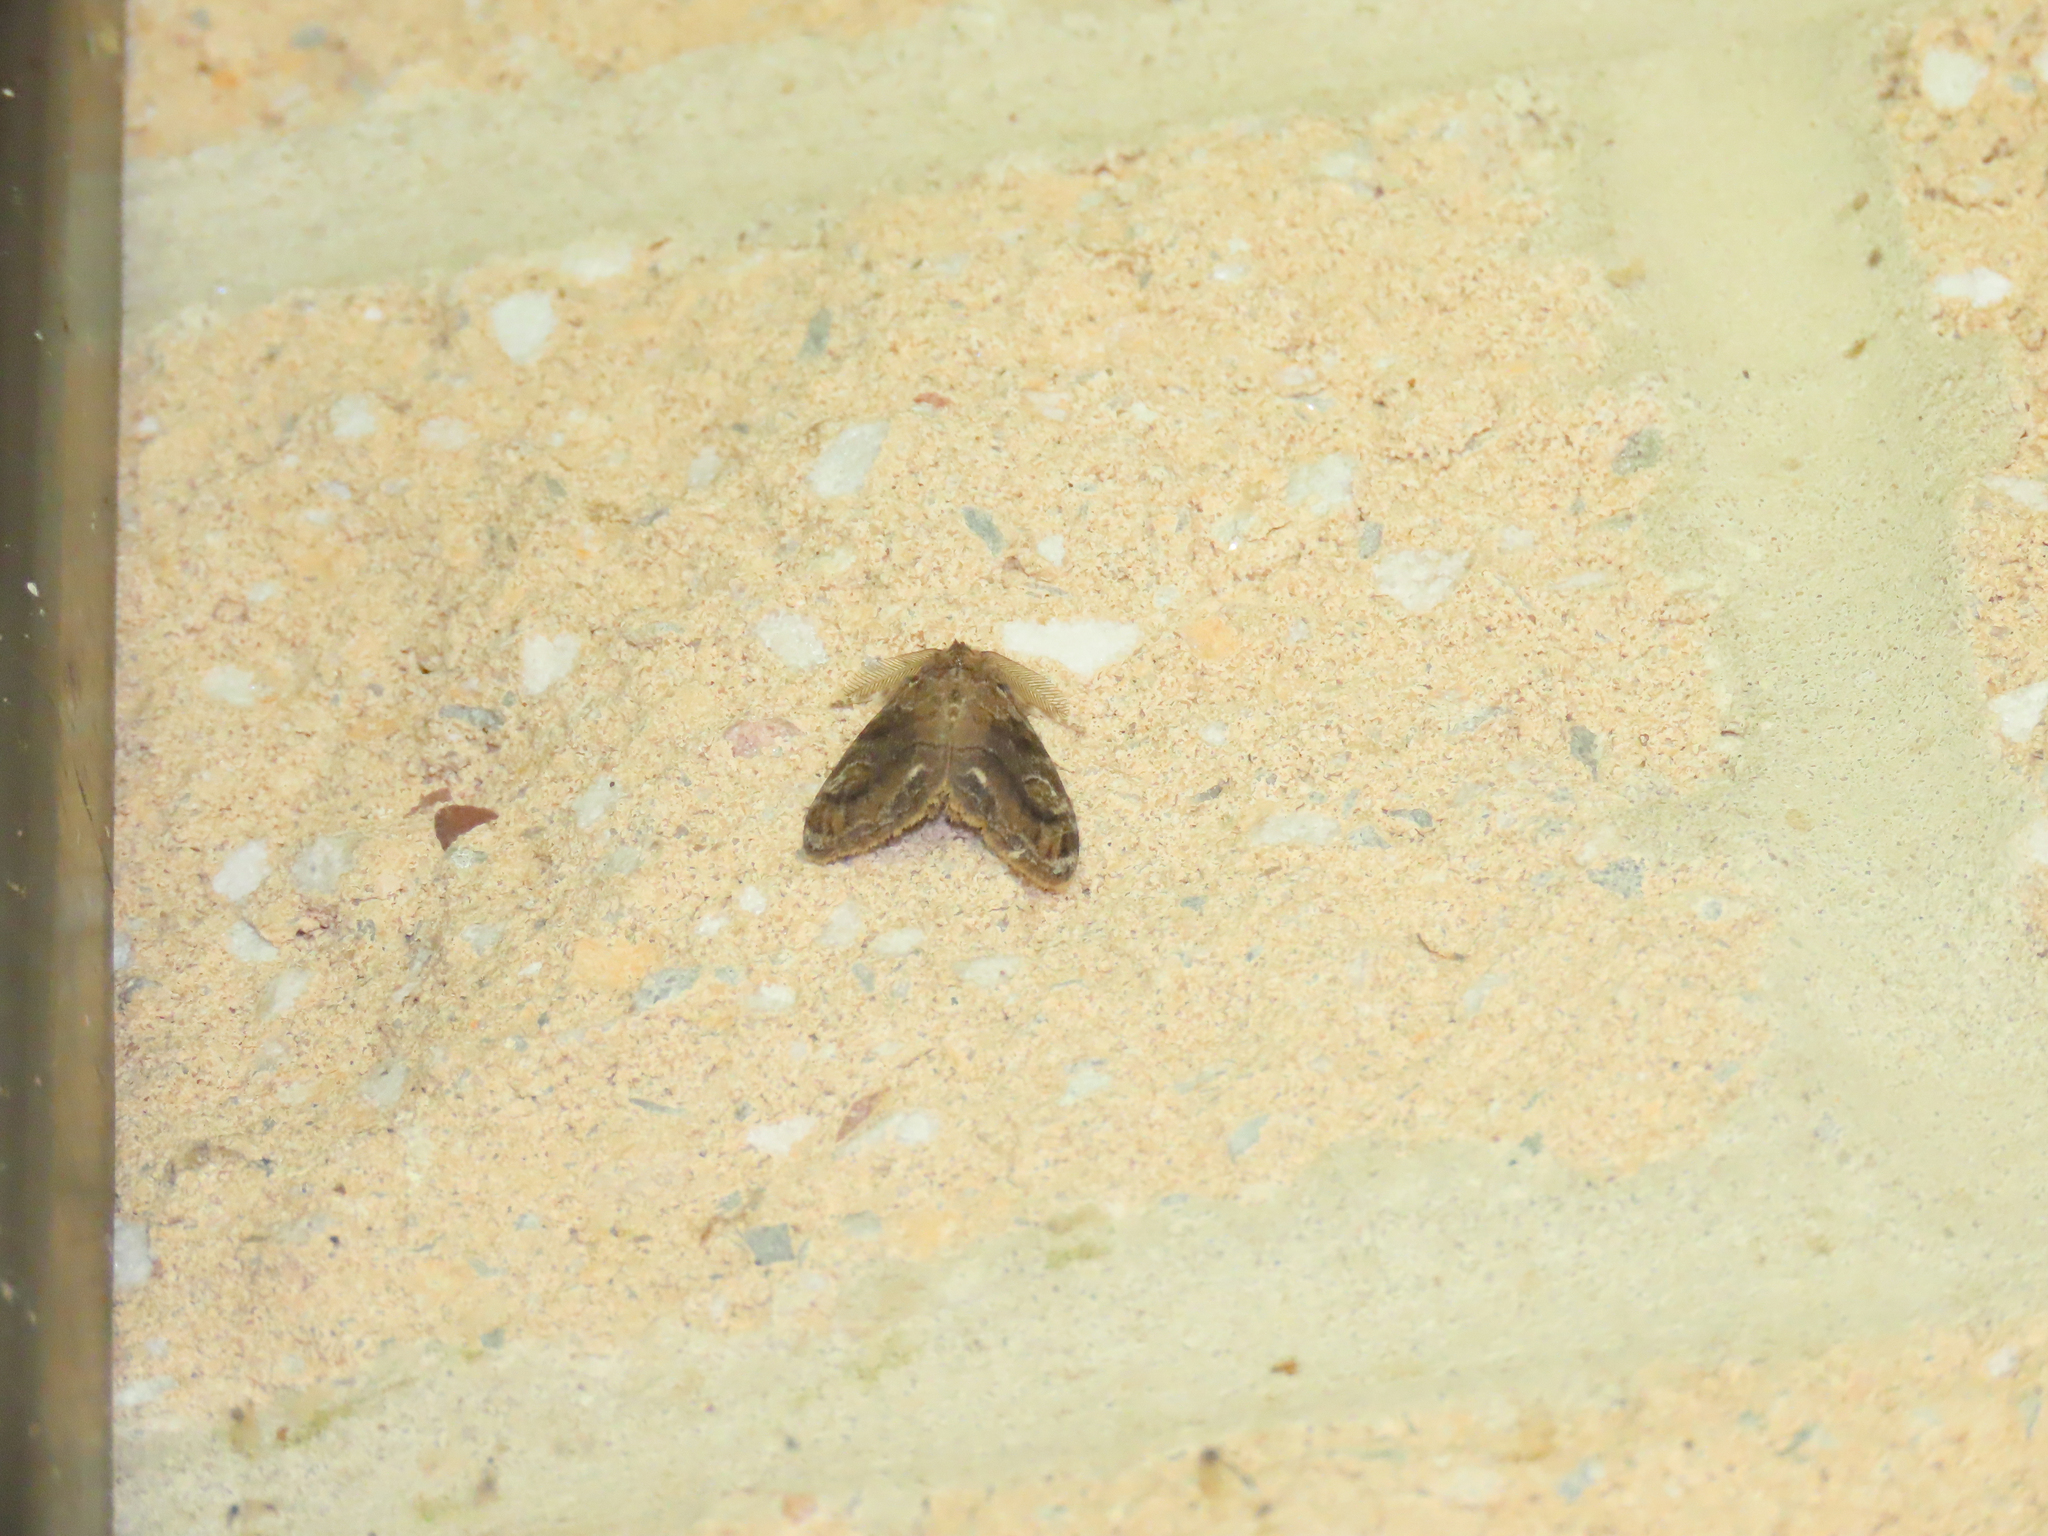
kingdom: Animalia
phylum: Arthropoda
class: Insecta
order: Lepidoptera
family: Erebidae
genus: Orgyia
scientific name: Orgyia definita
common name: Definite tussock moth
